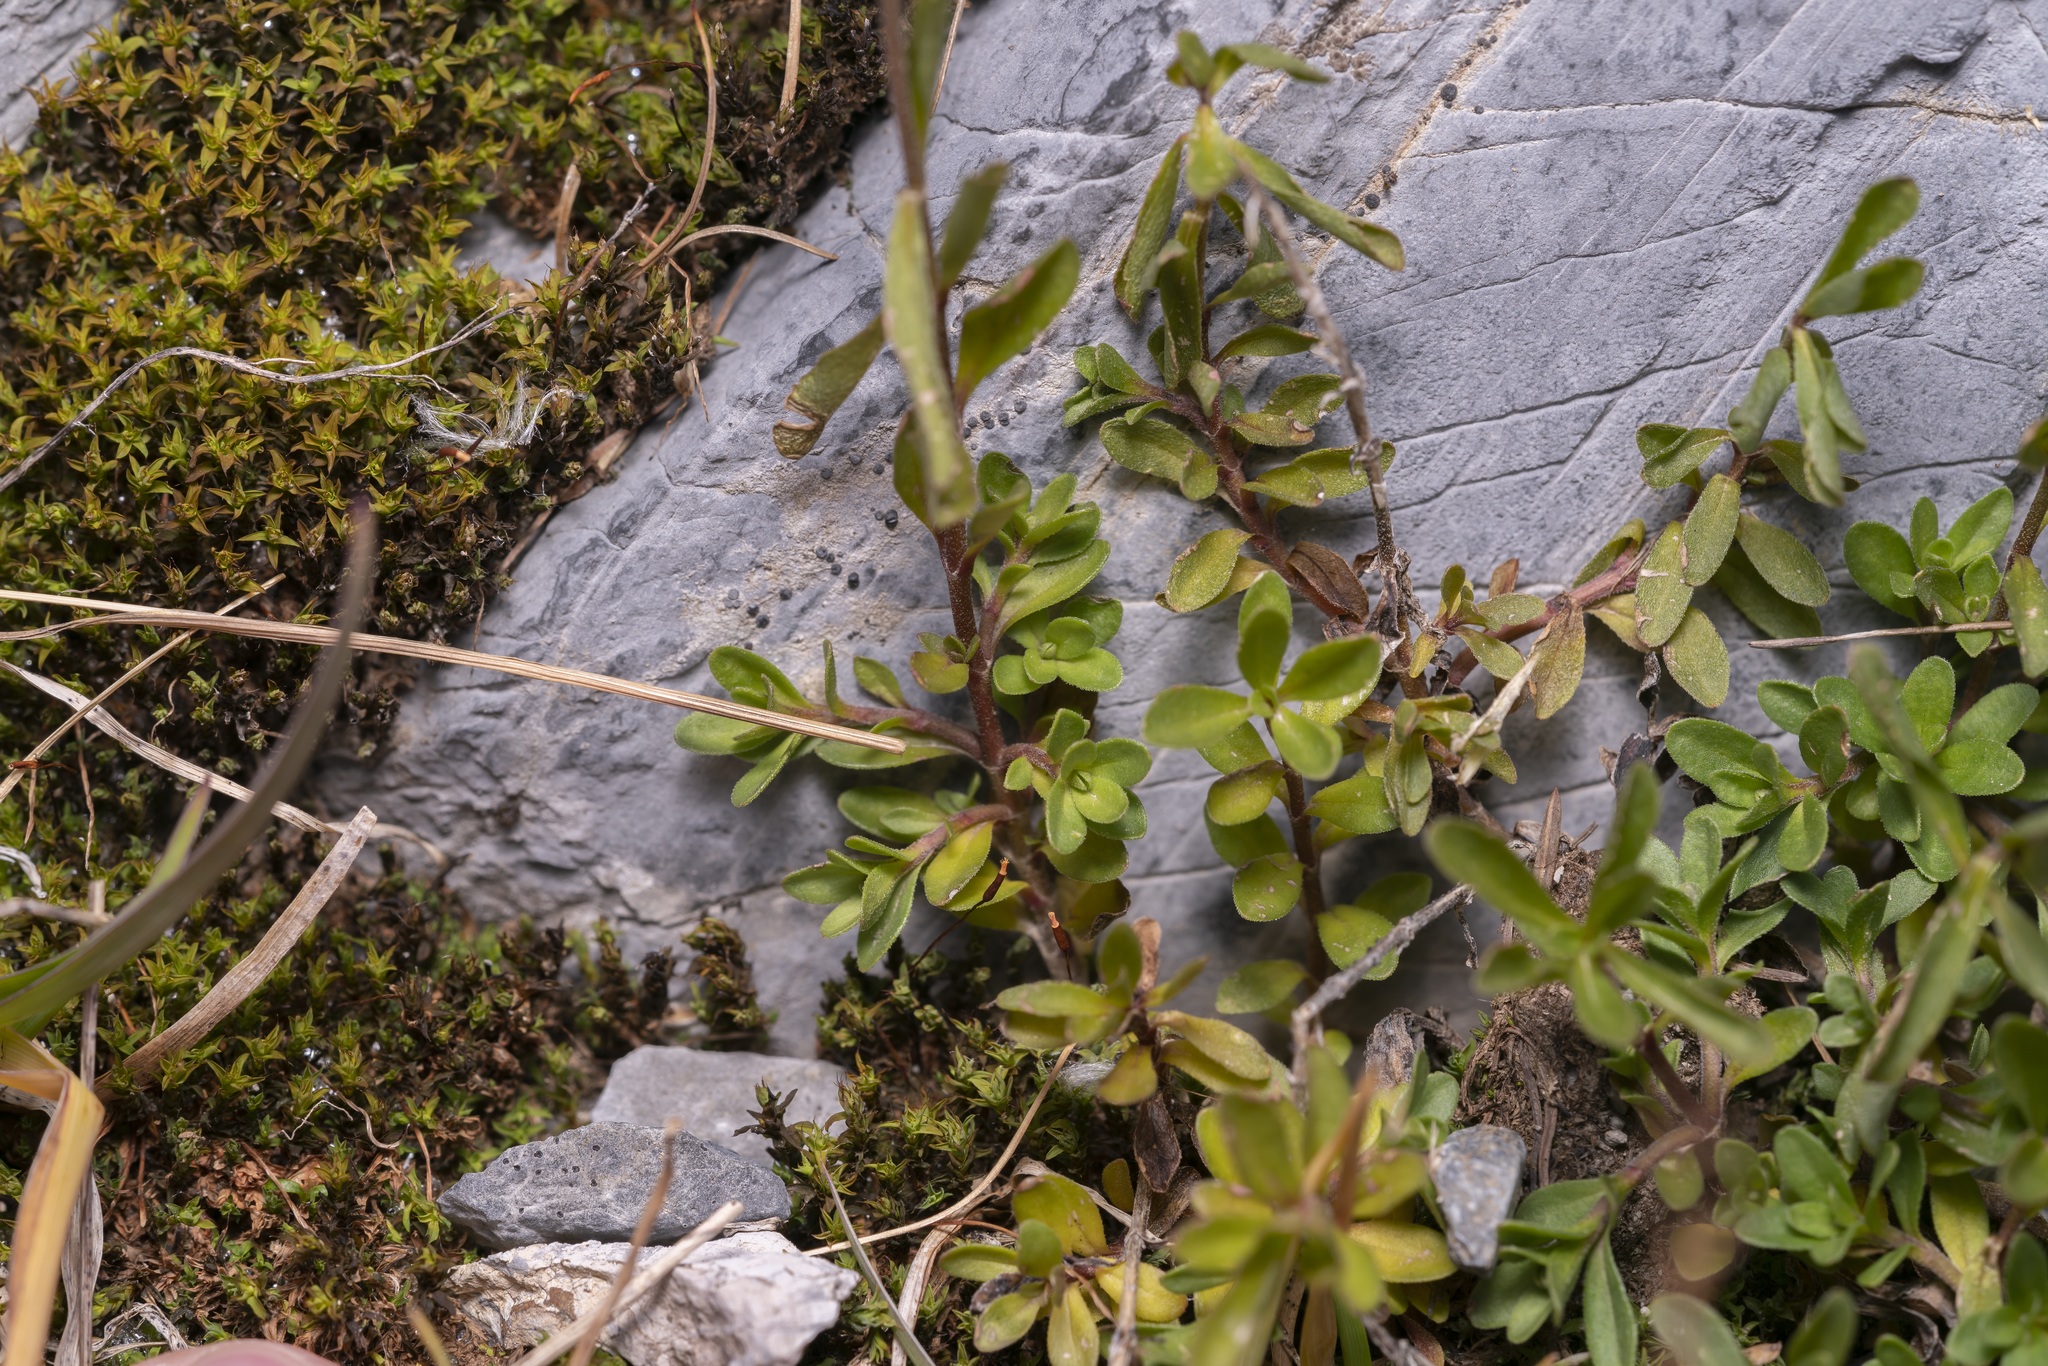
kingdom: Plantae
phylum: Tracheophyta
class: Magnoliopsida
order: Lamiales
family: Plantaginaceae
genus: Veronica
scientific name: Veronica fruticans
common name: Rock speedwell
